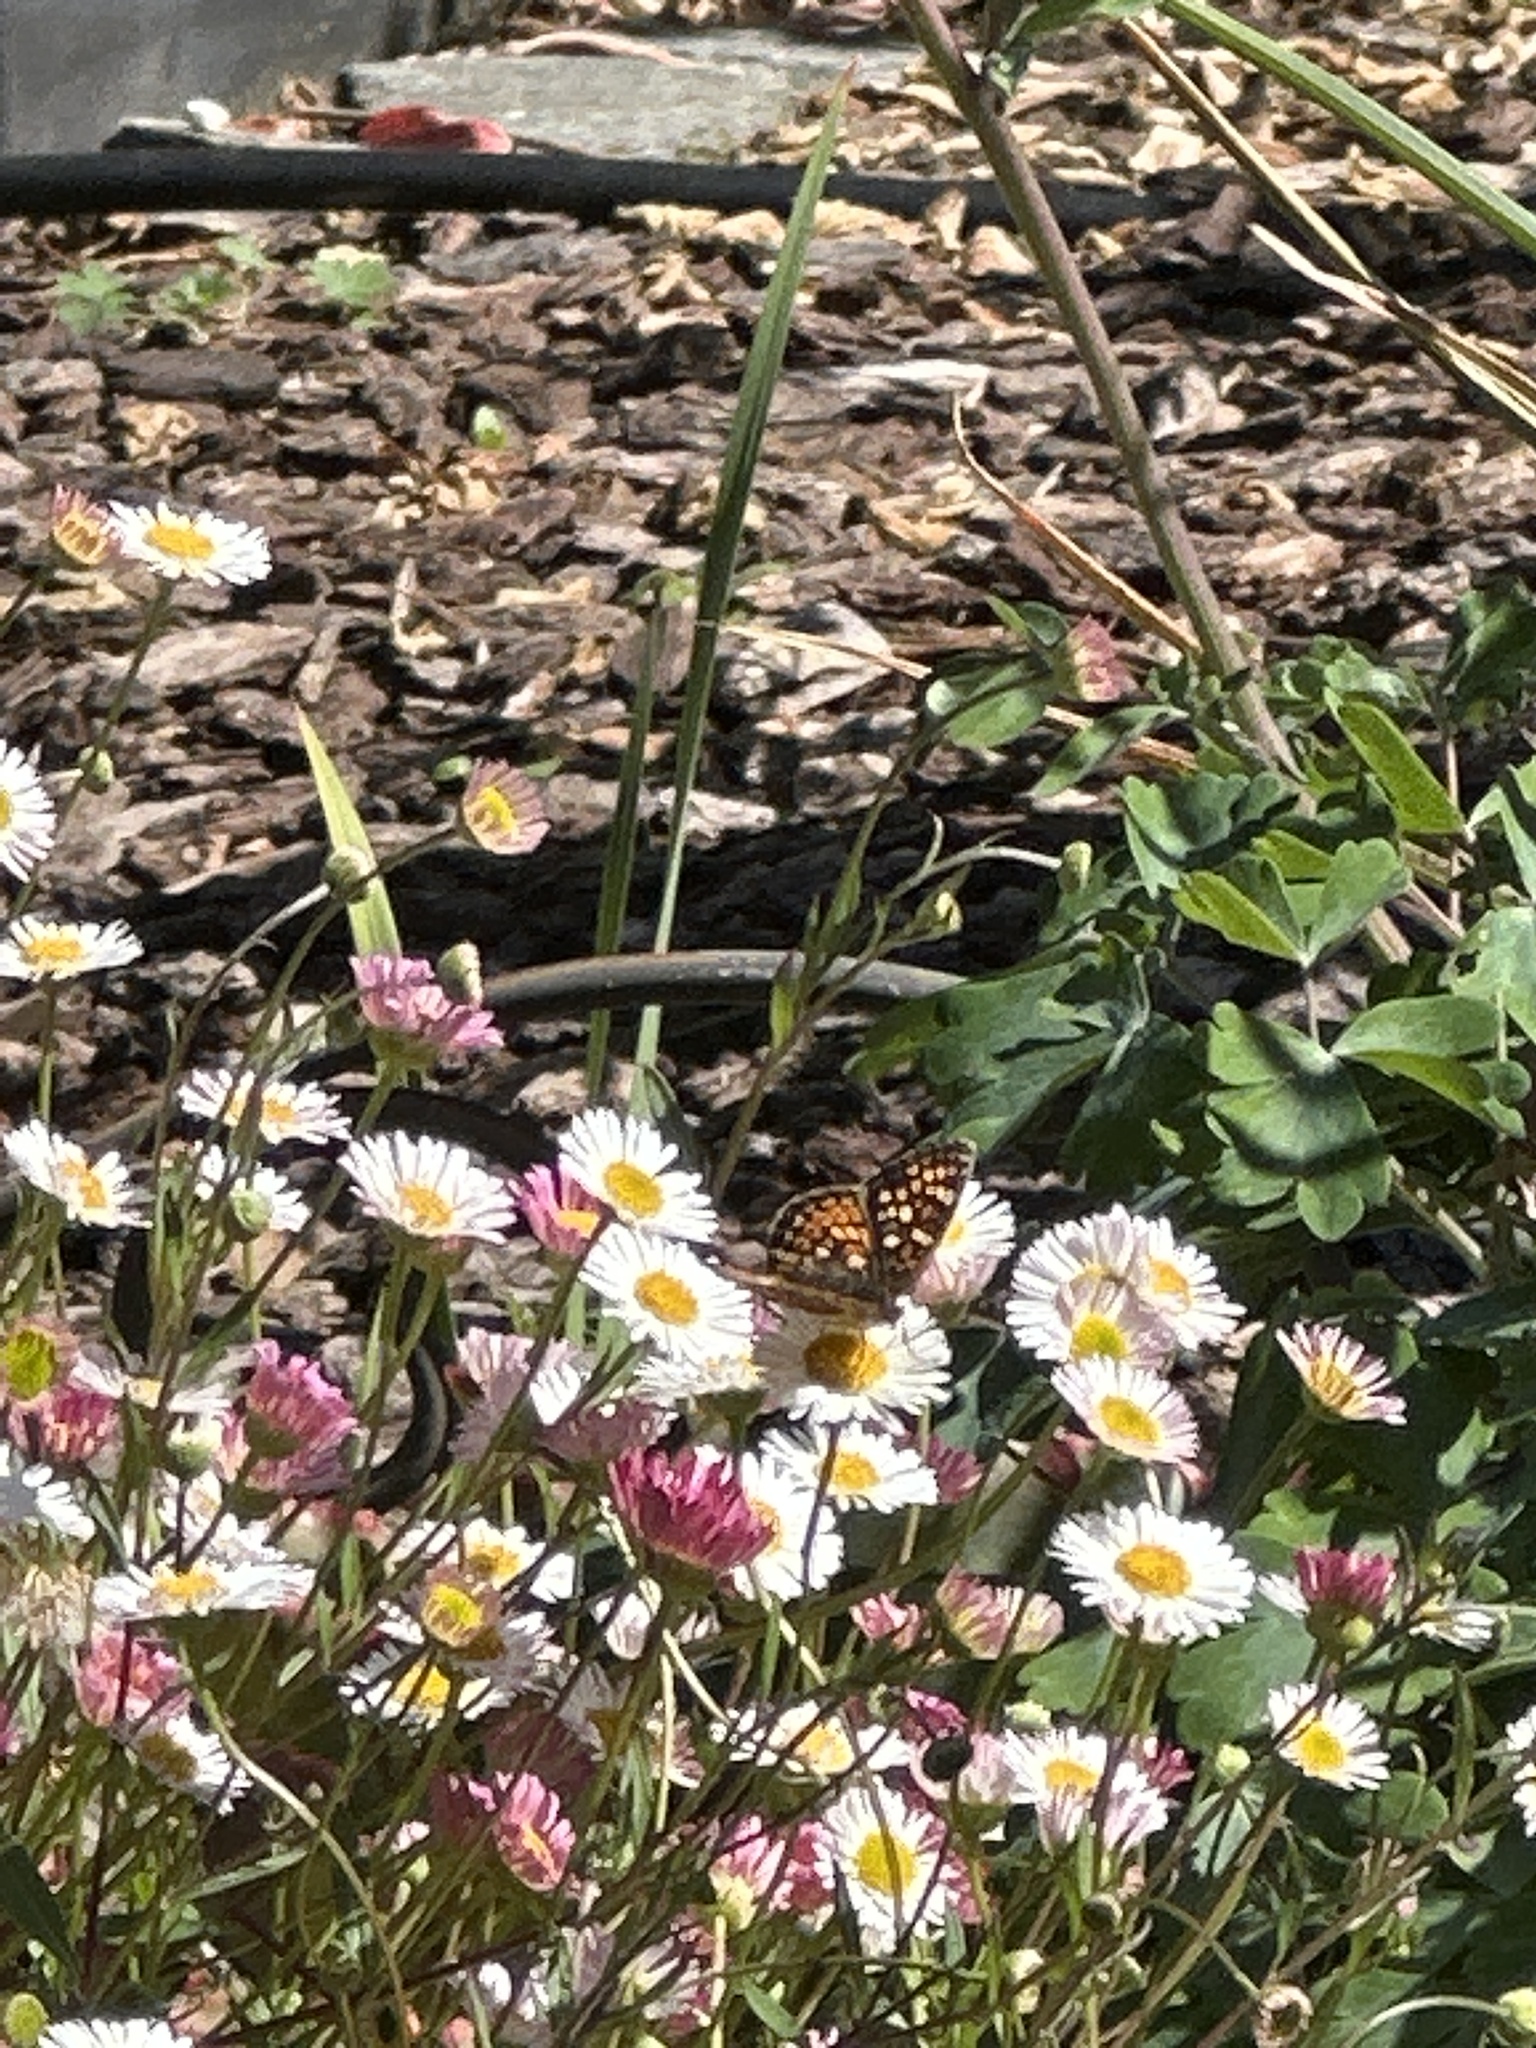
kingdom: Animalia
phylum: Arthropoda
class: Insecta
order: Lepidoptera
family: Nymphalidae
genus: Phyciodes
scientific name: Phyciodes tharos
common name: Pearl crescent
